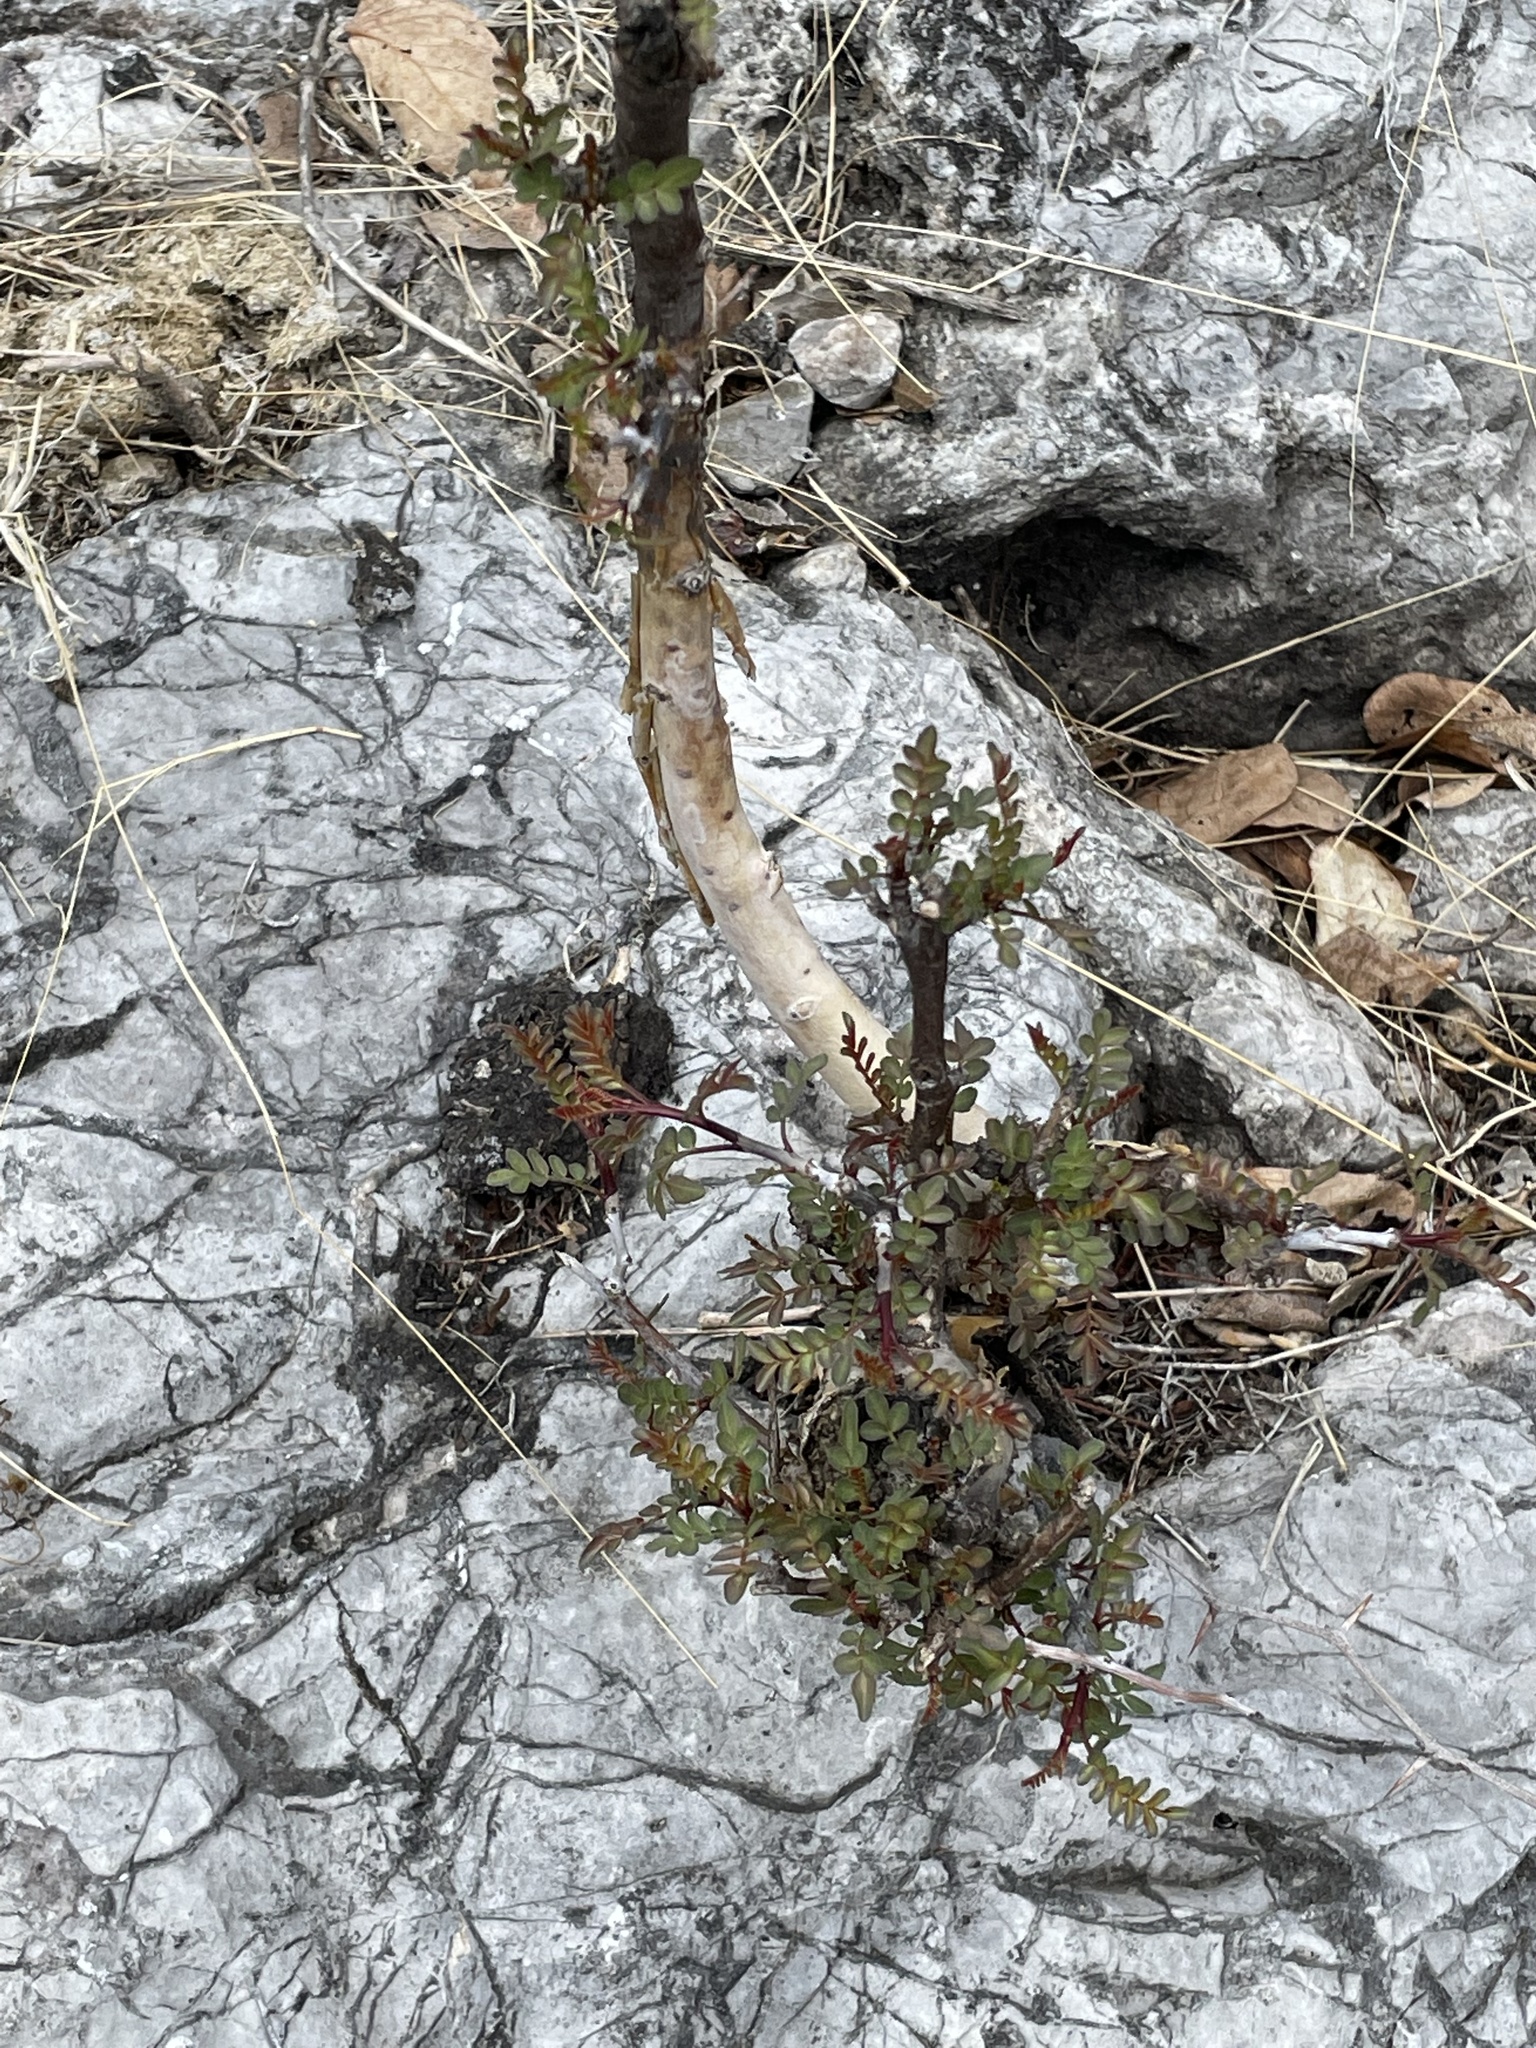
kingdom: Plantae
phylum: Tracheophyta
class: Magnoliopsida
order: Sapindales
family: Burseraceae
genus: Bursera
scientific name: Bursera aptera
